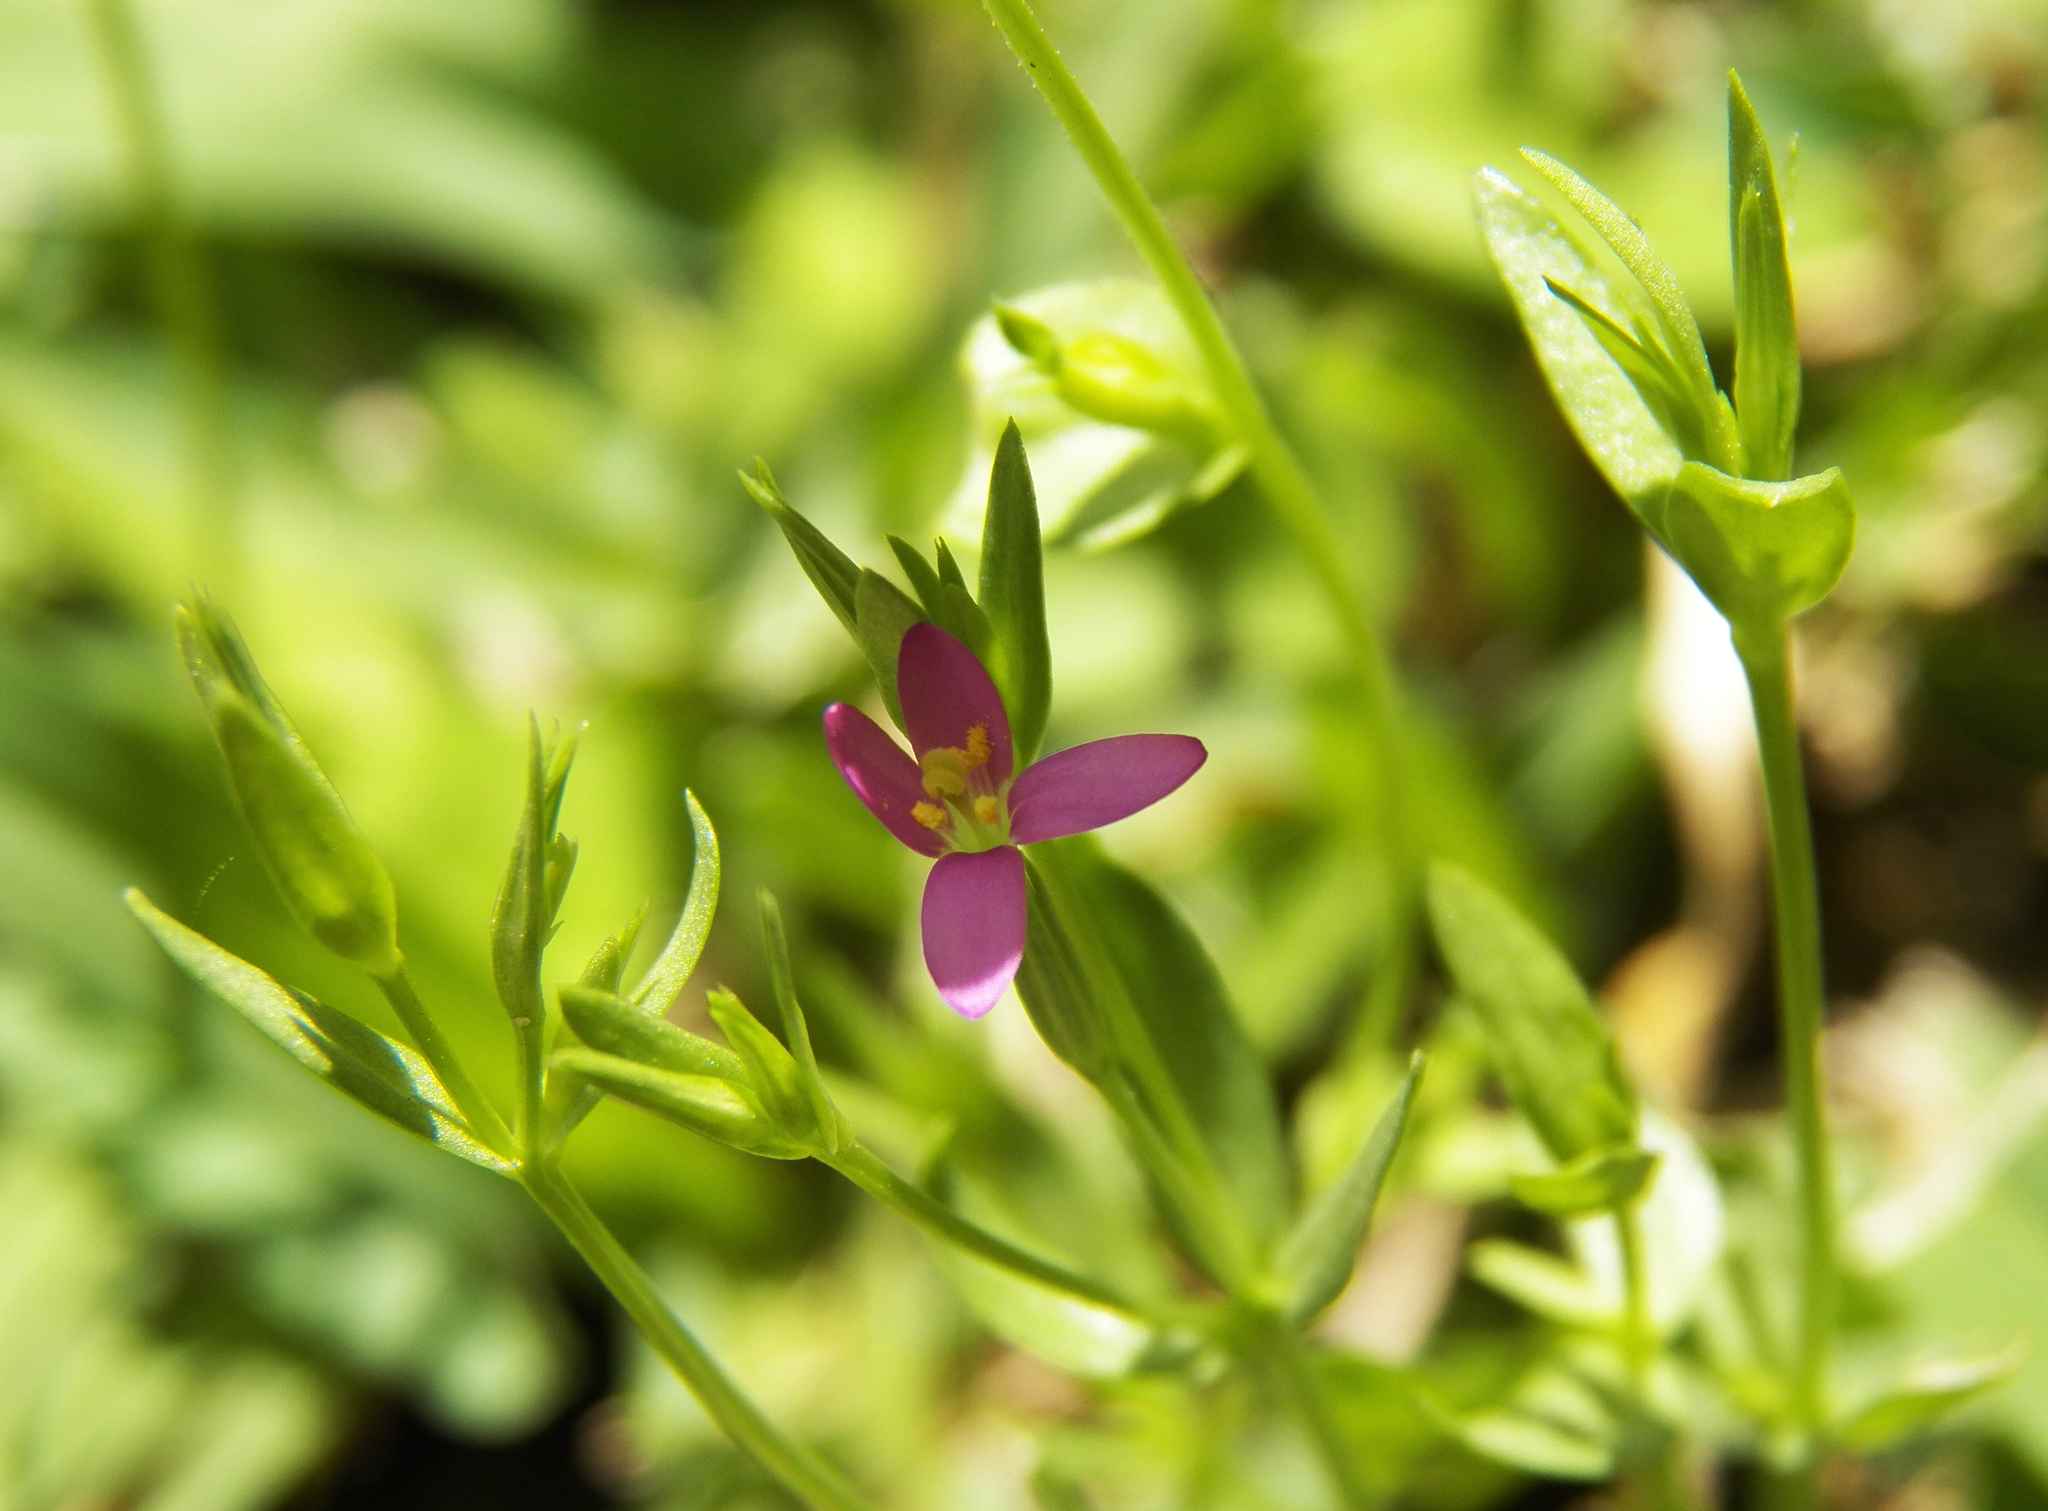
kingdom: Plantae
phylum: Tracheophyta
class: Magnoliopsida
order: Gentianales
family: Gentianaceae
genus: Centaurium
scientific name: Centaurium pulchellum
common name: Lesser centaury
